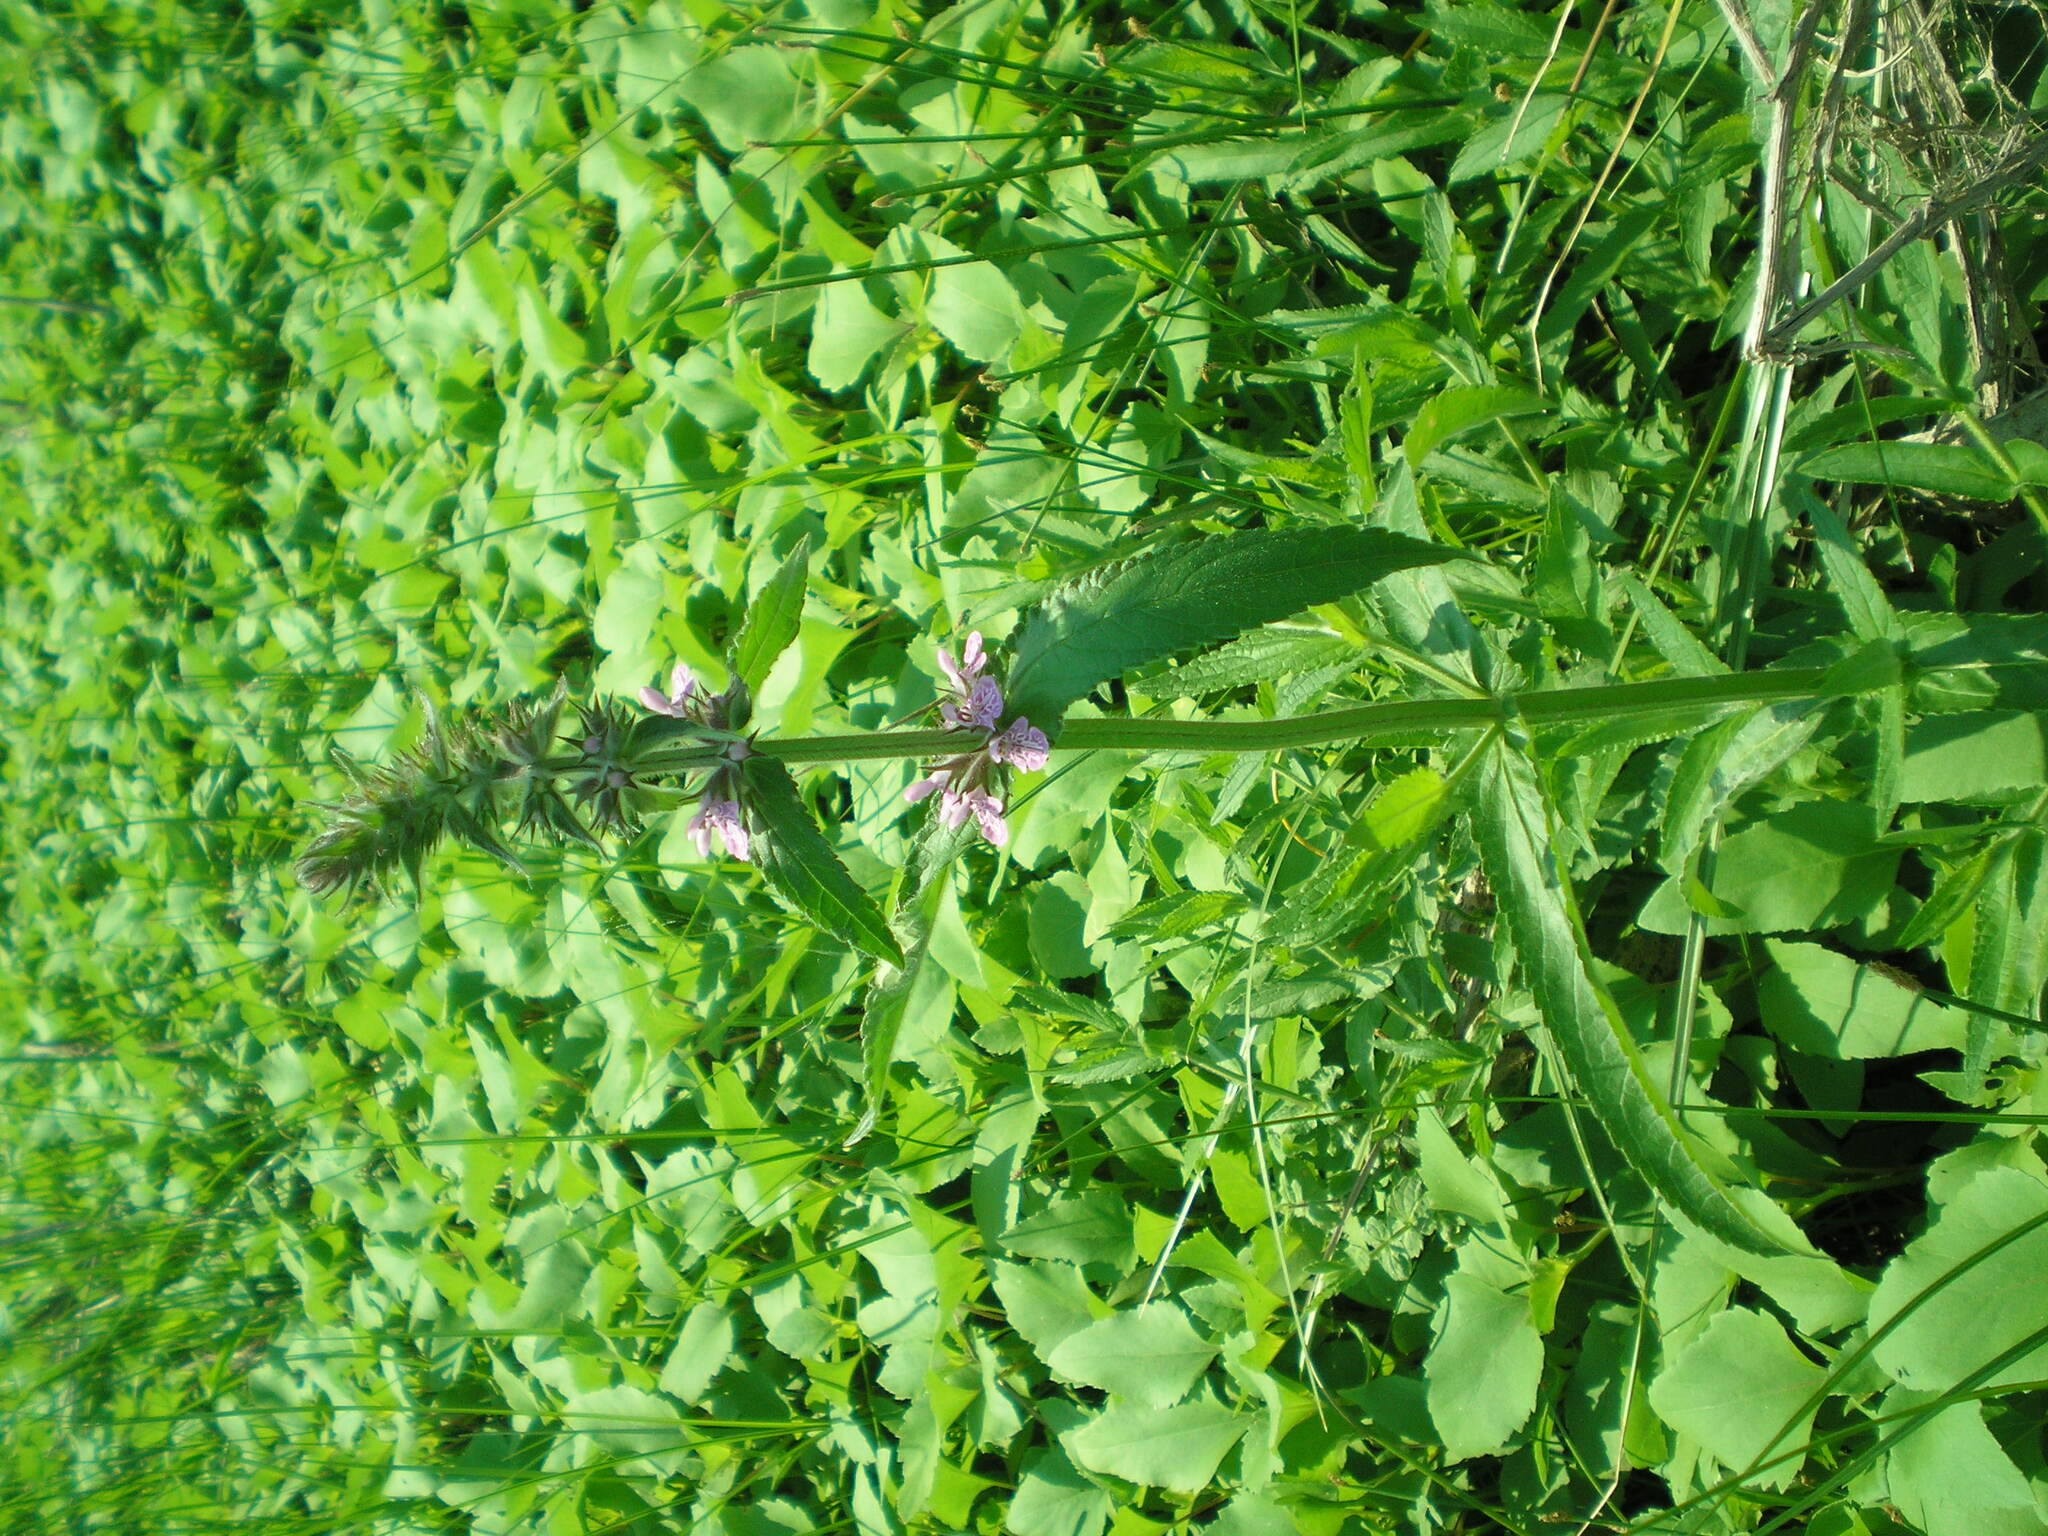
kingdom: Plantae
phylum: Tracheophyta
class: Magnoliopsida
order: Lamiales
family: Lamiaceae
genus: Stachys
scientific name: Stachys palustris
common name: Marsh woundwort
